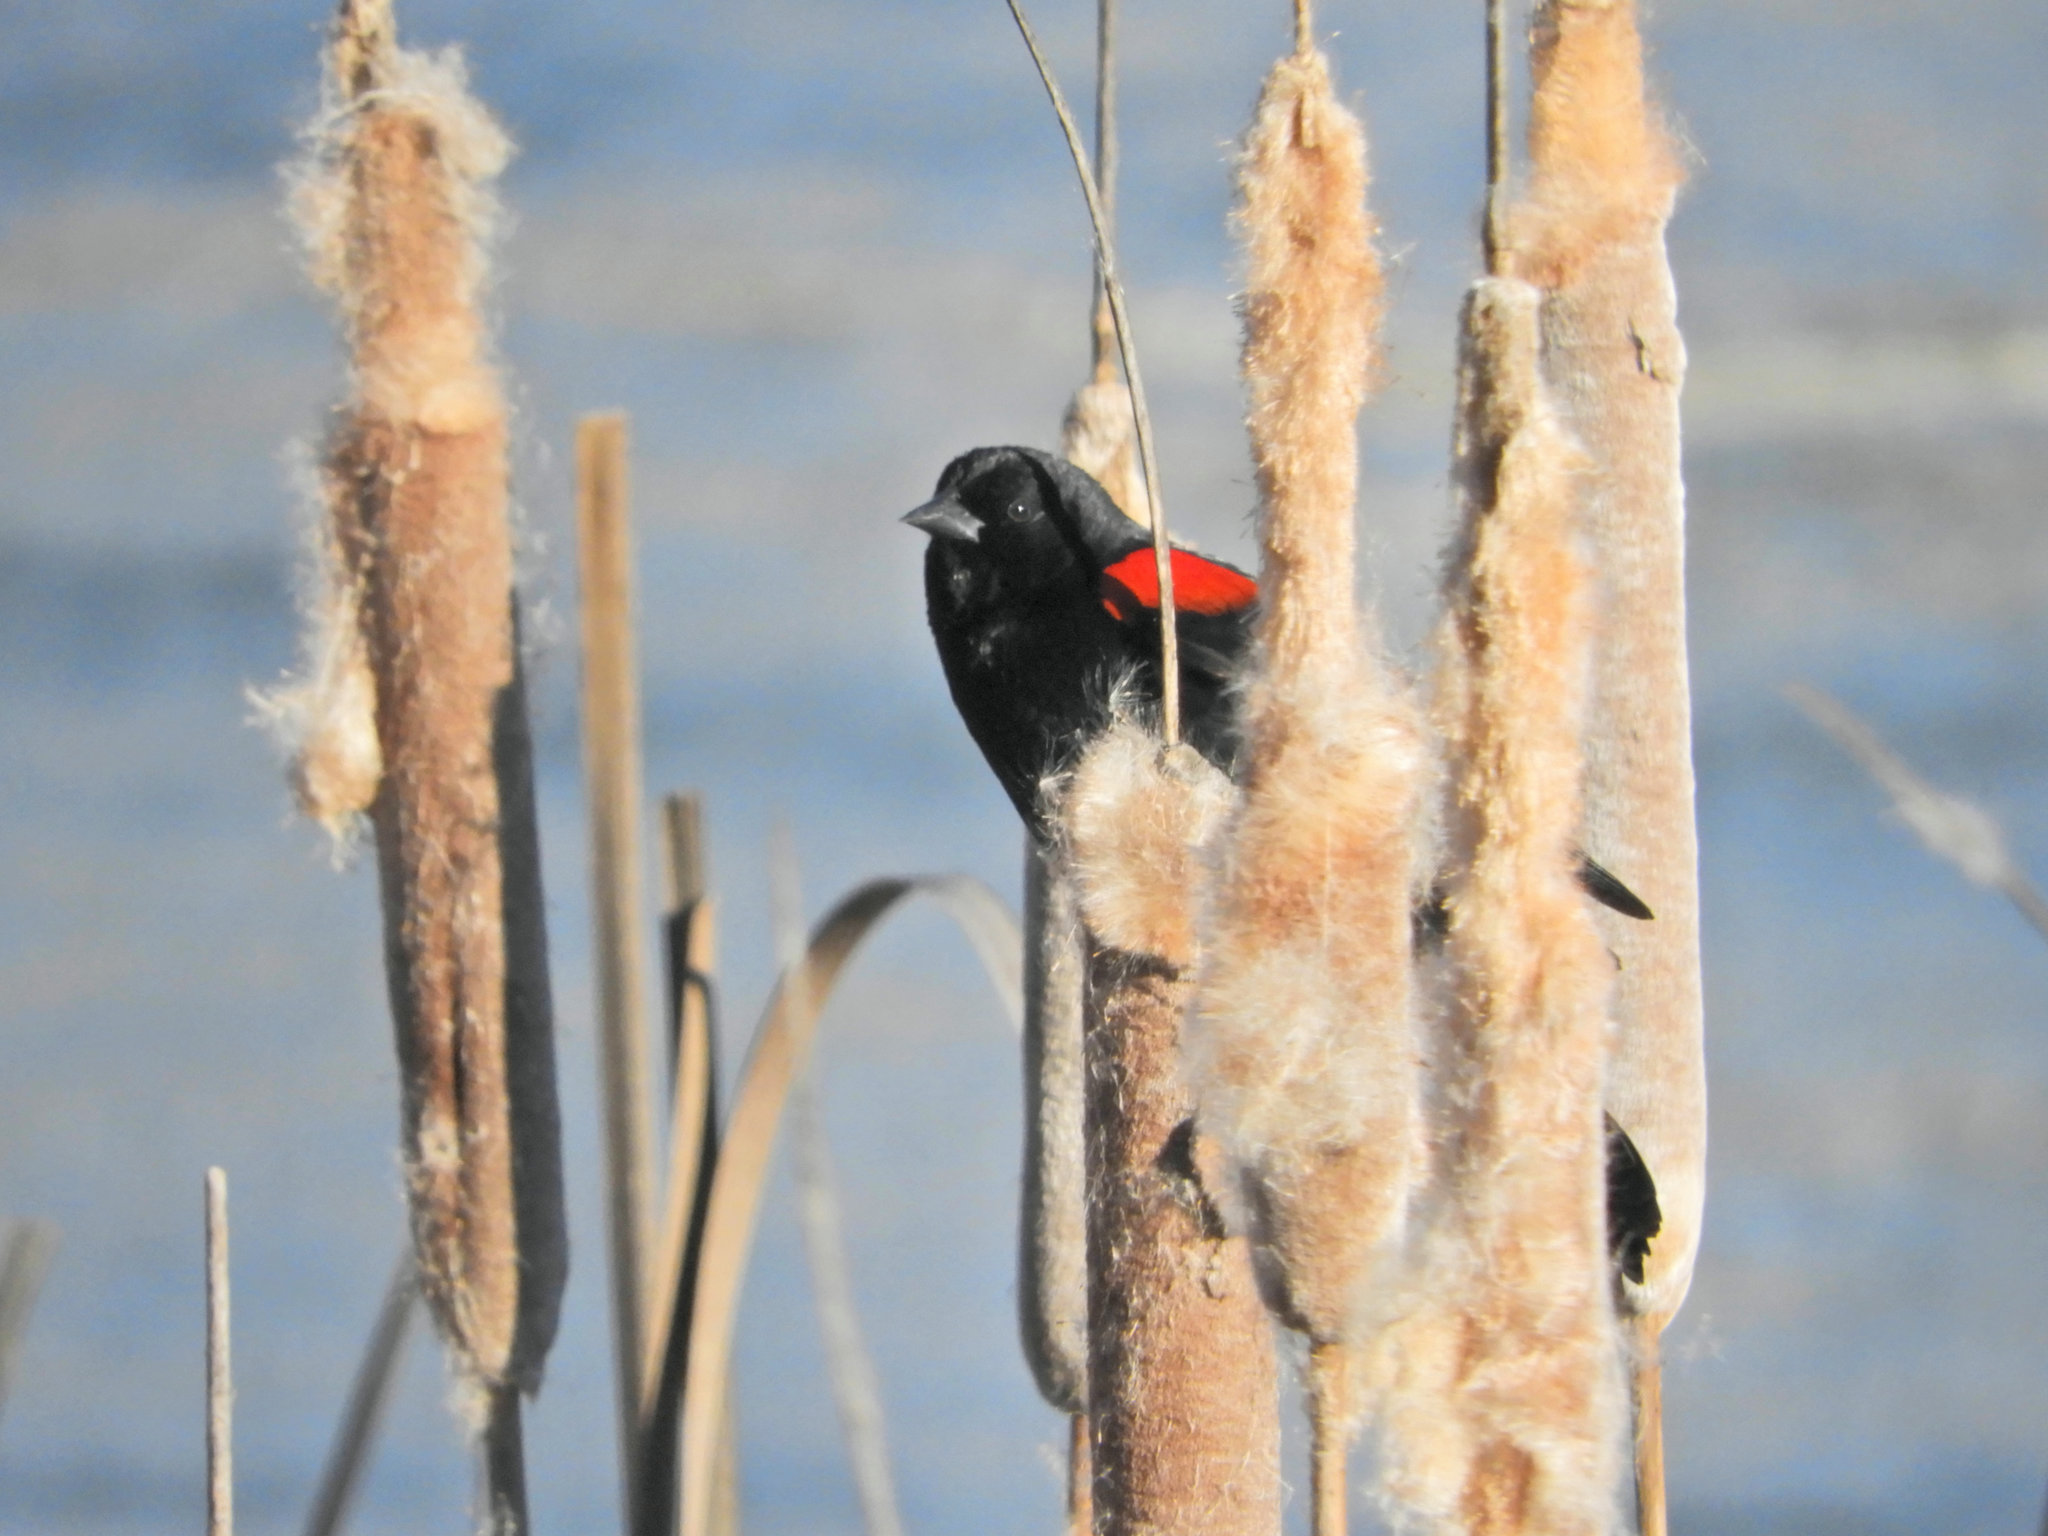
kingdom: Animalia
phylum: Chordata
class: Aves
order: Passeriformes
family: Icteridae
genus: Agelaius
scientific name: Agelaius phoeniceus
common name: Red-winged blackbird
